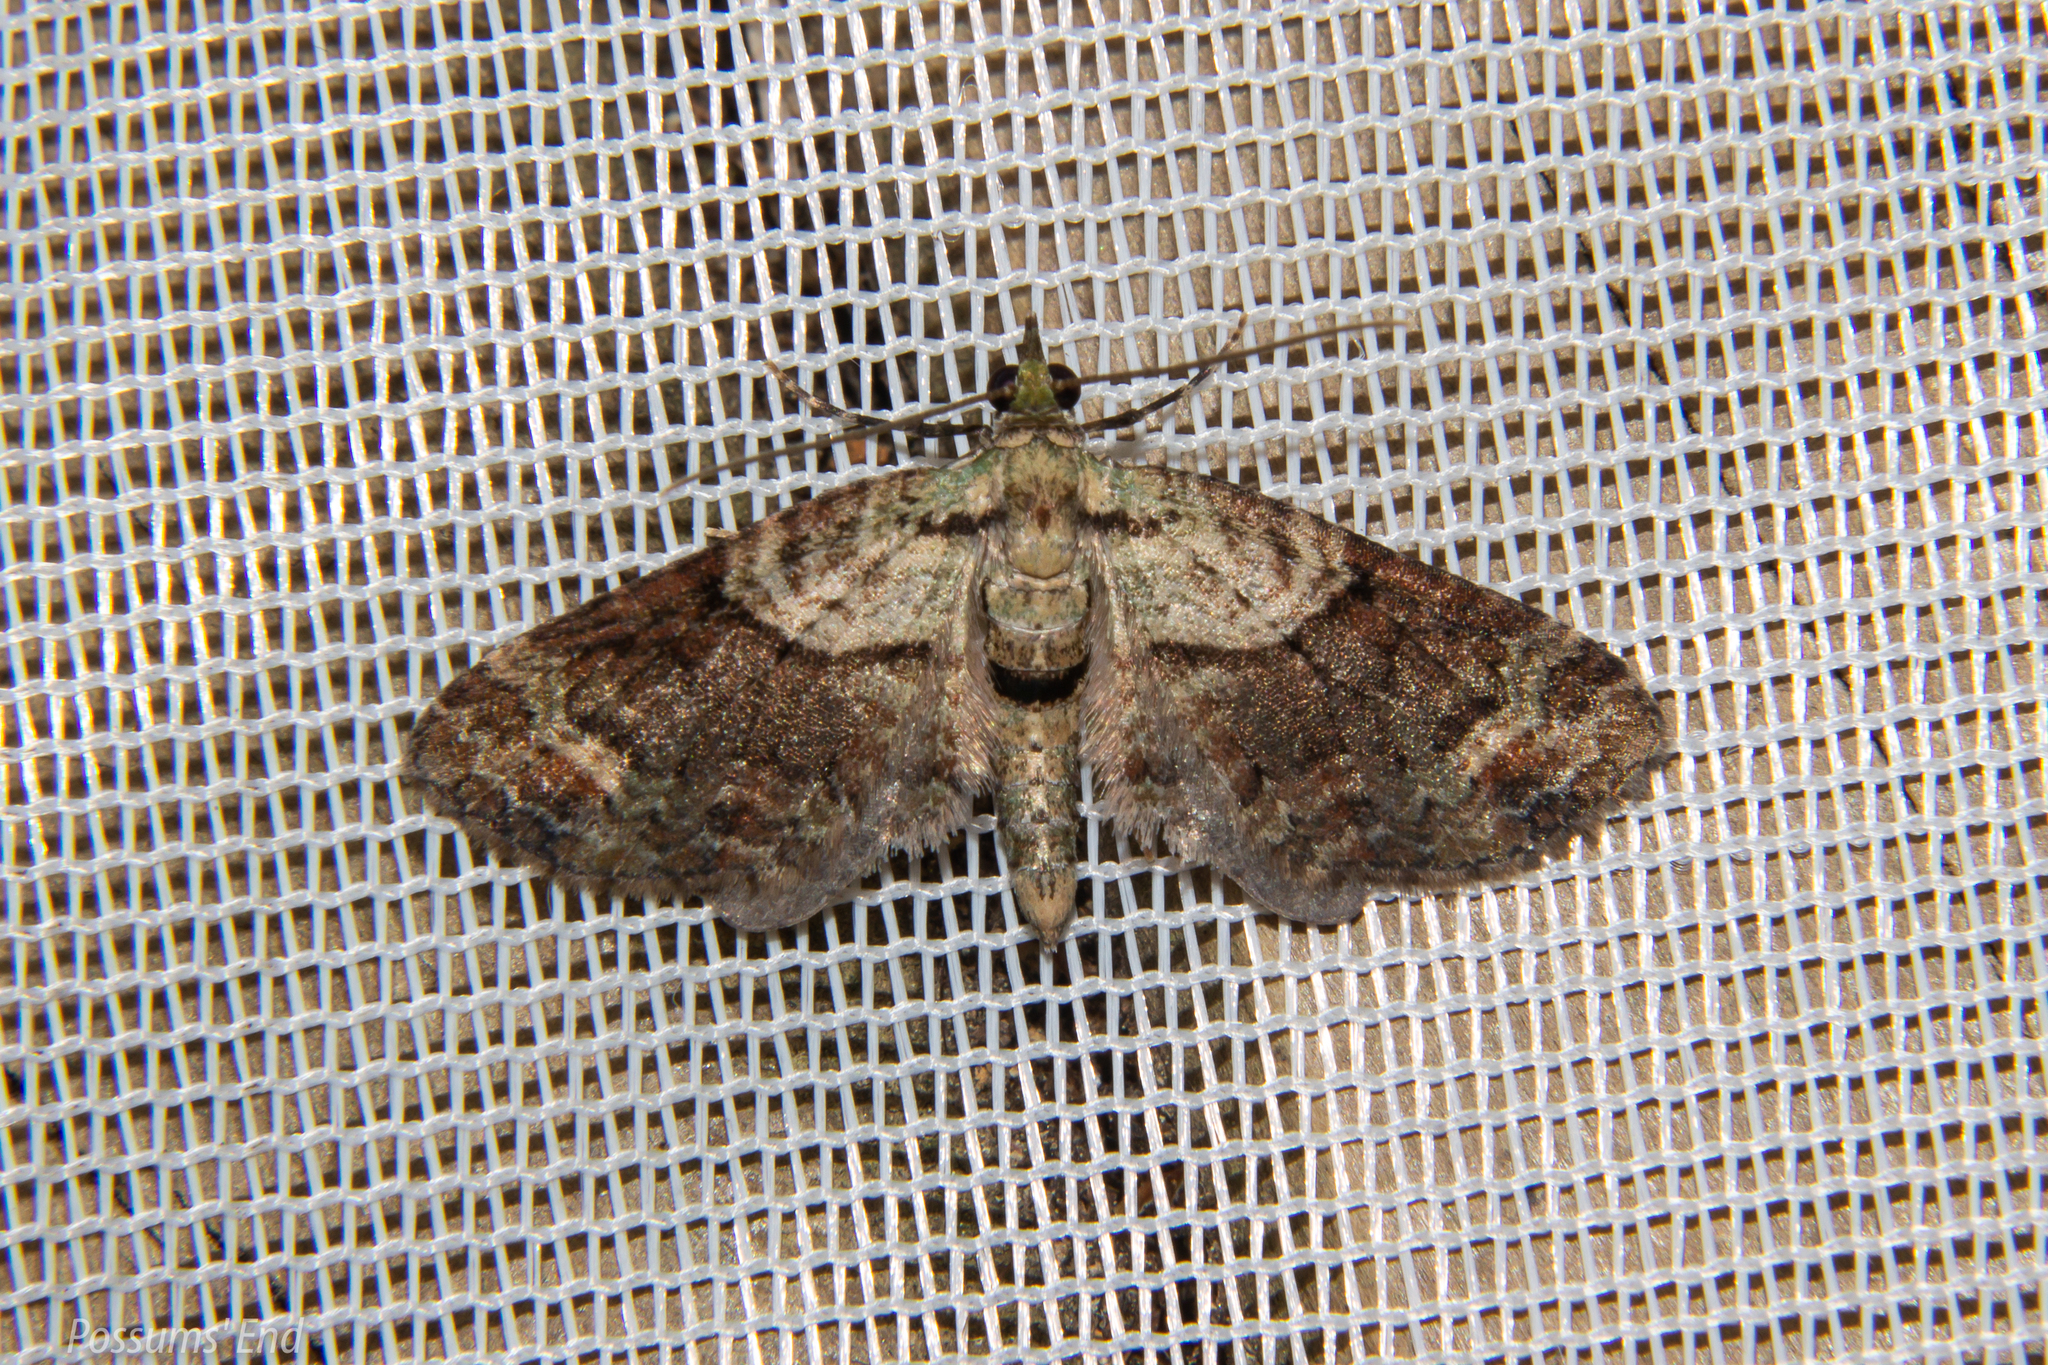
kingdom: Animalia
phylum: Arthropoda
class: Insecta
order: Lepidoptera
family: Geometridae
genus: Idaea
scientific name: Idaea mutanda
